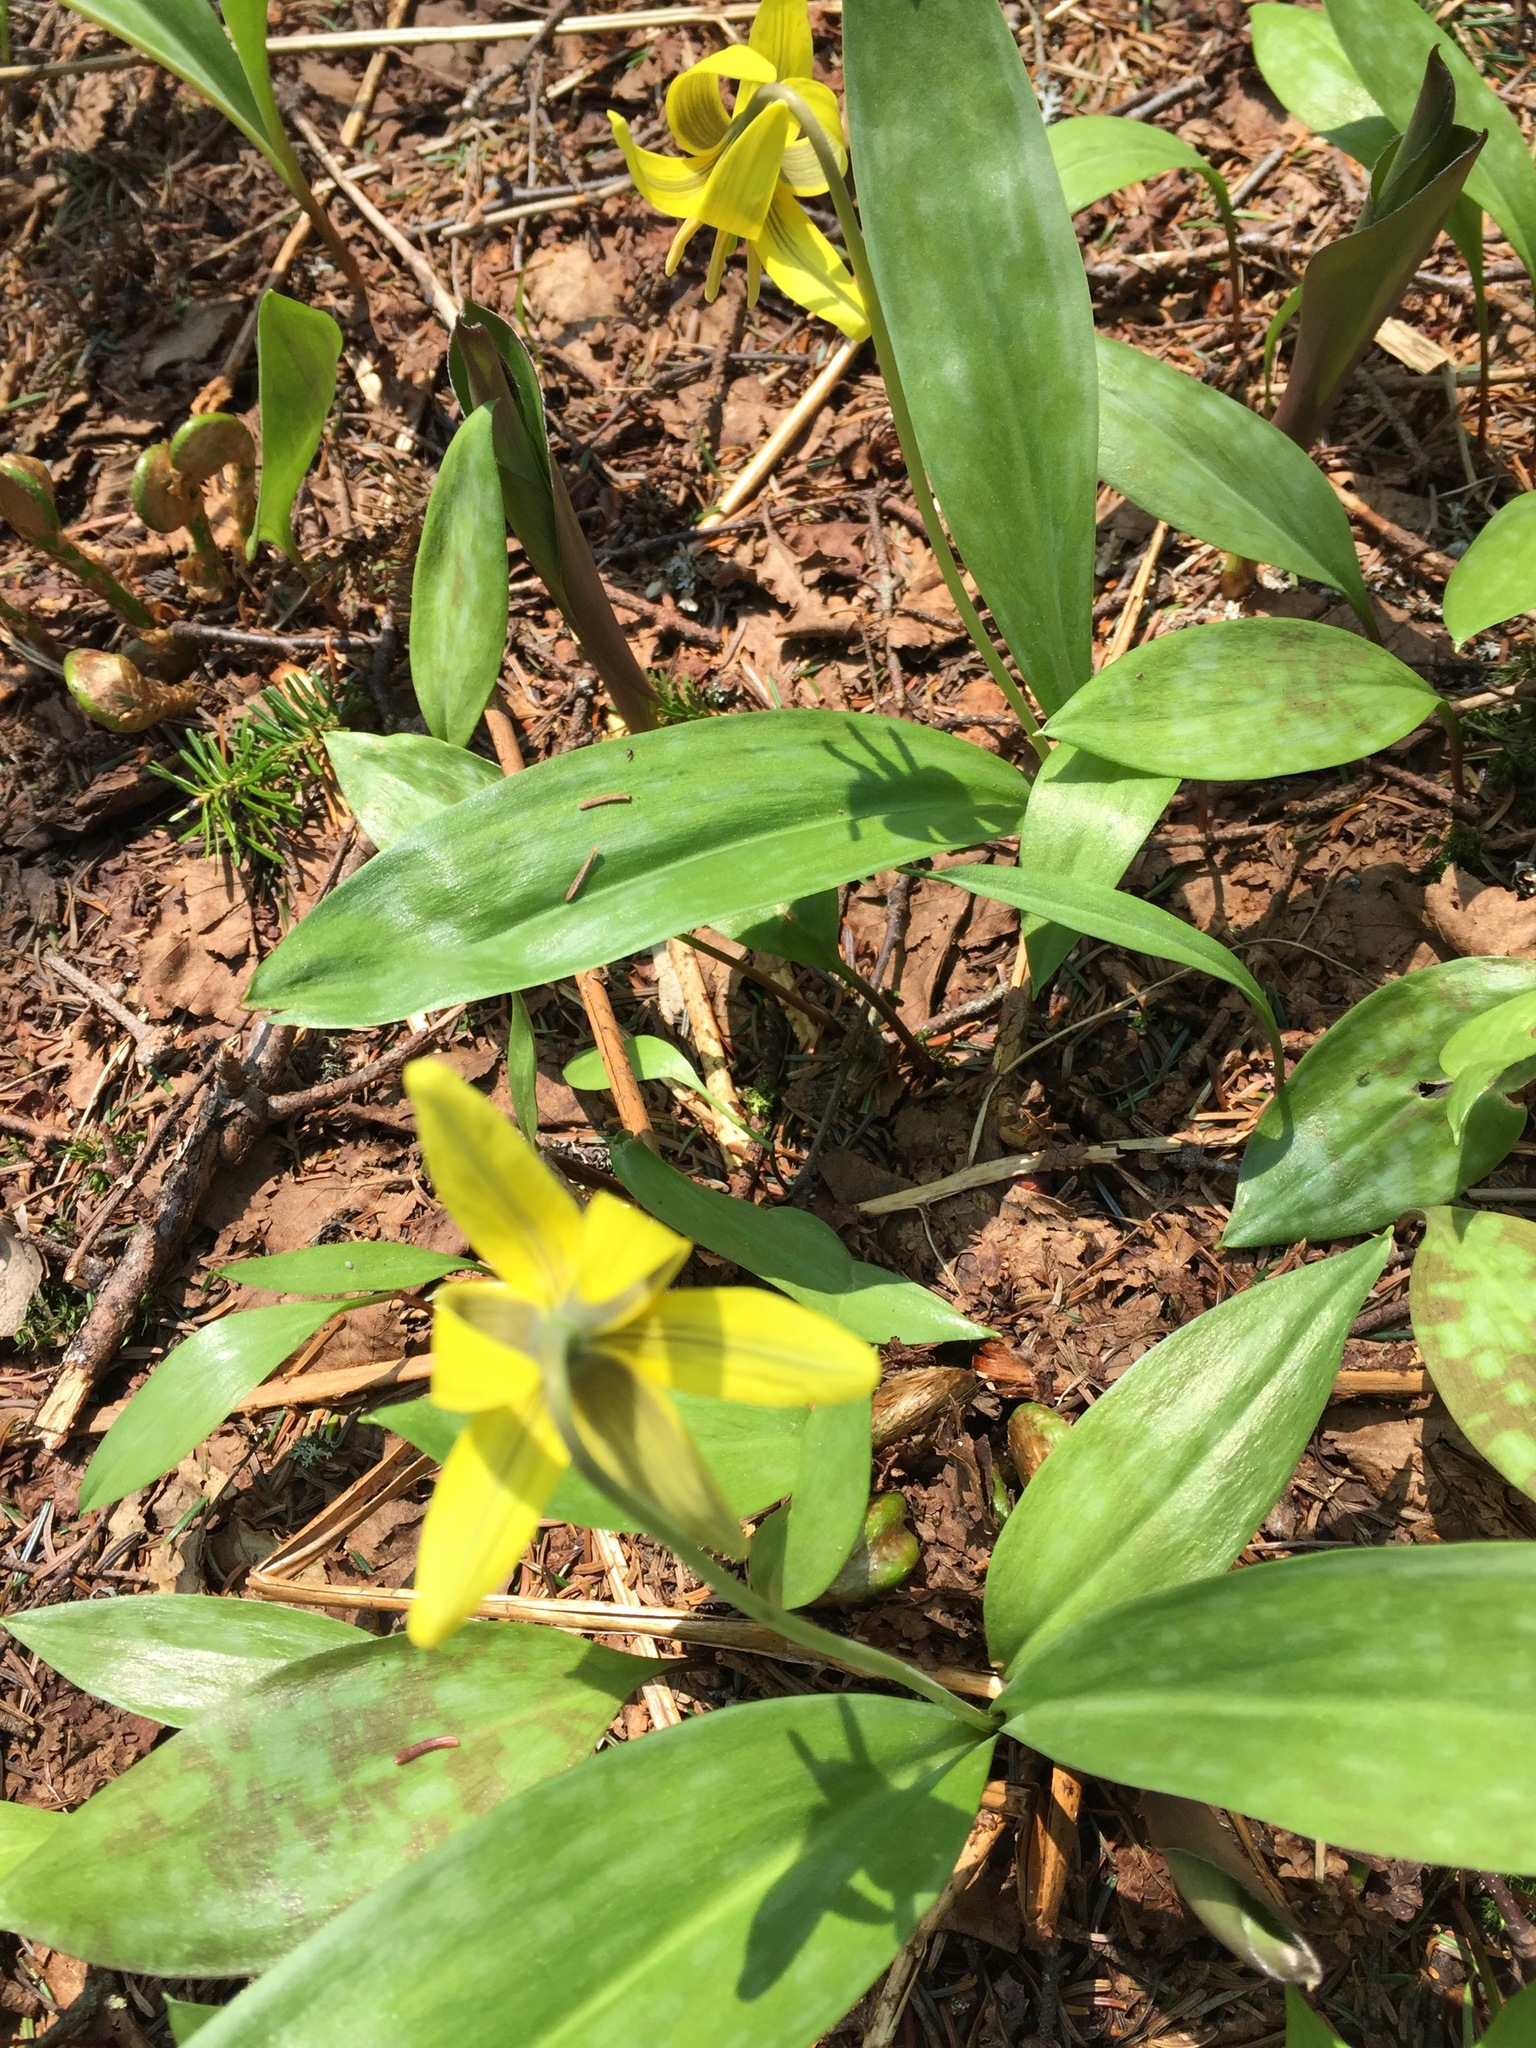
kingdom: Plantae
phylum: Tracheophyta
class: Liliopsida
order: Liliales
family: Liliaceae
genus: Erythronium
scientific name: Erythronium americanum
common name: Yellow adder's-tongue
